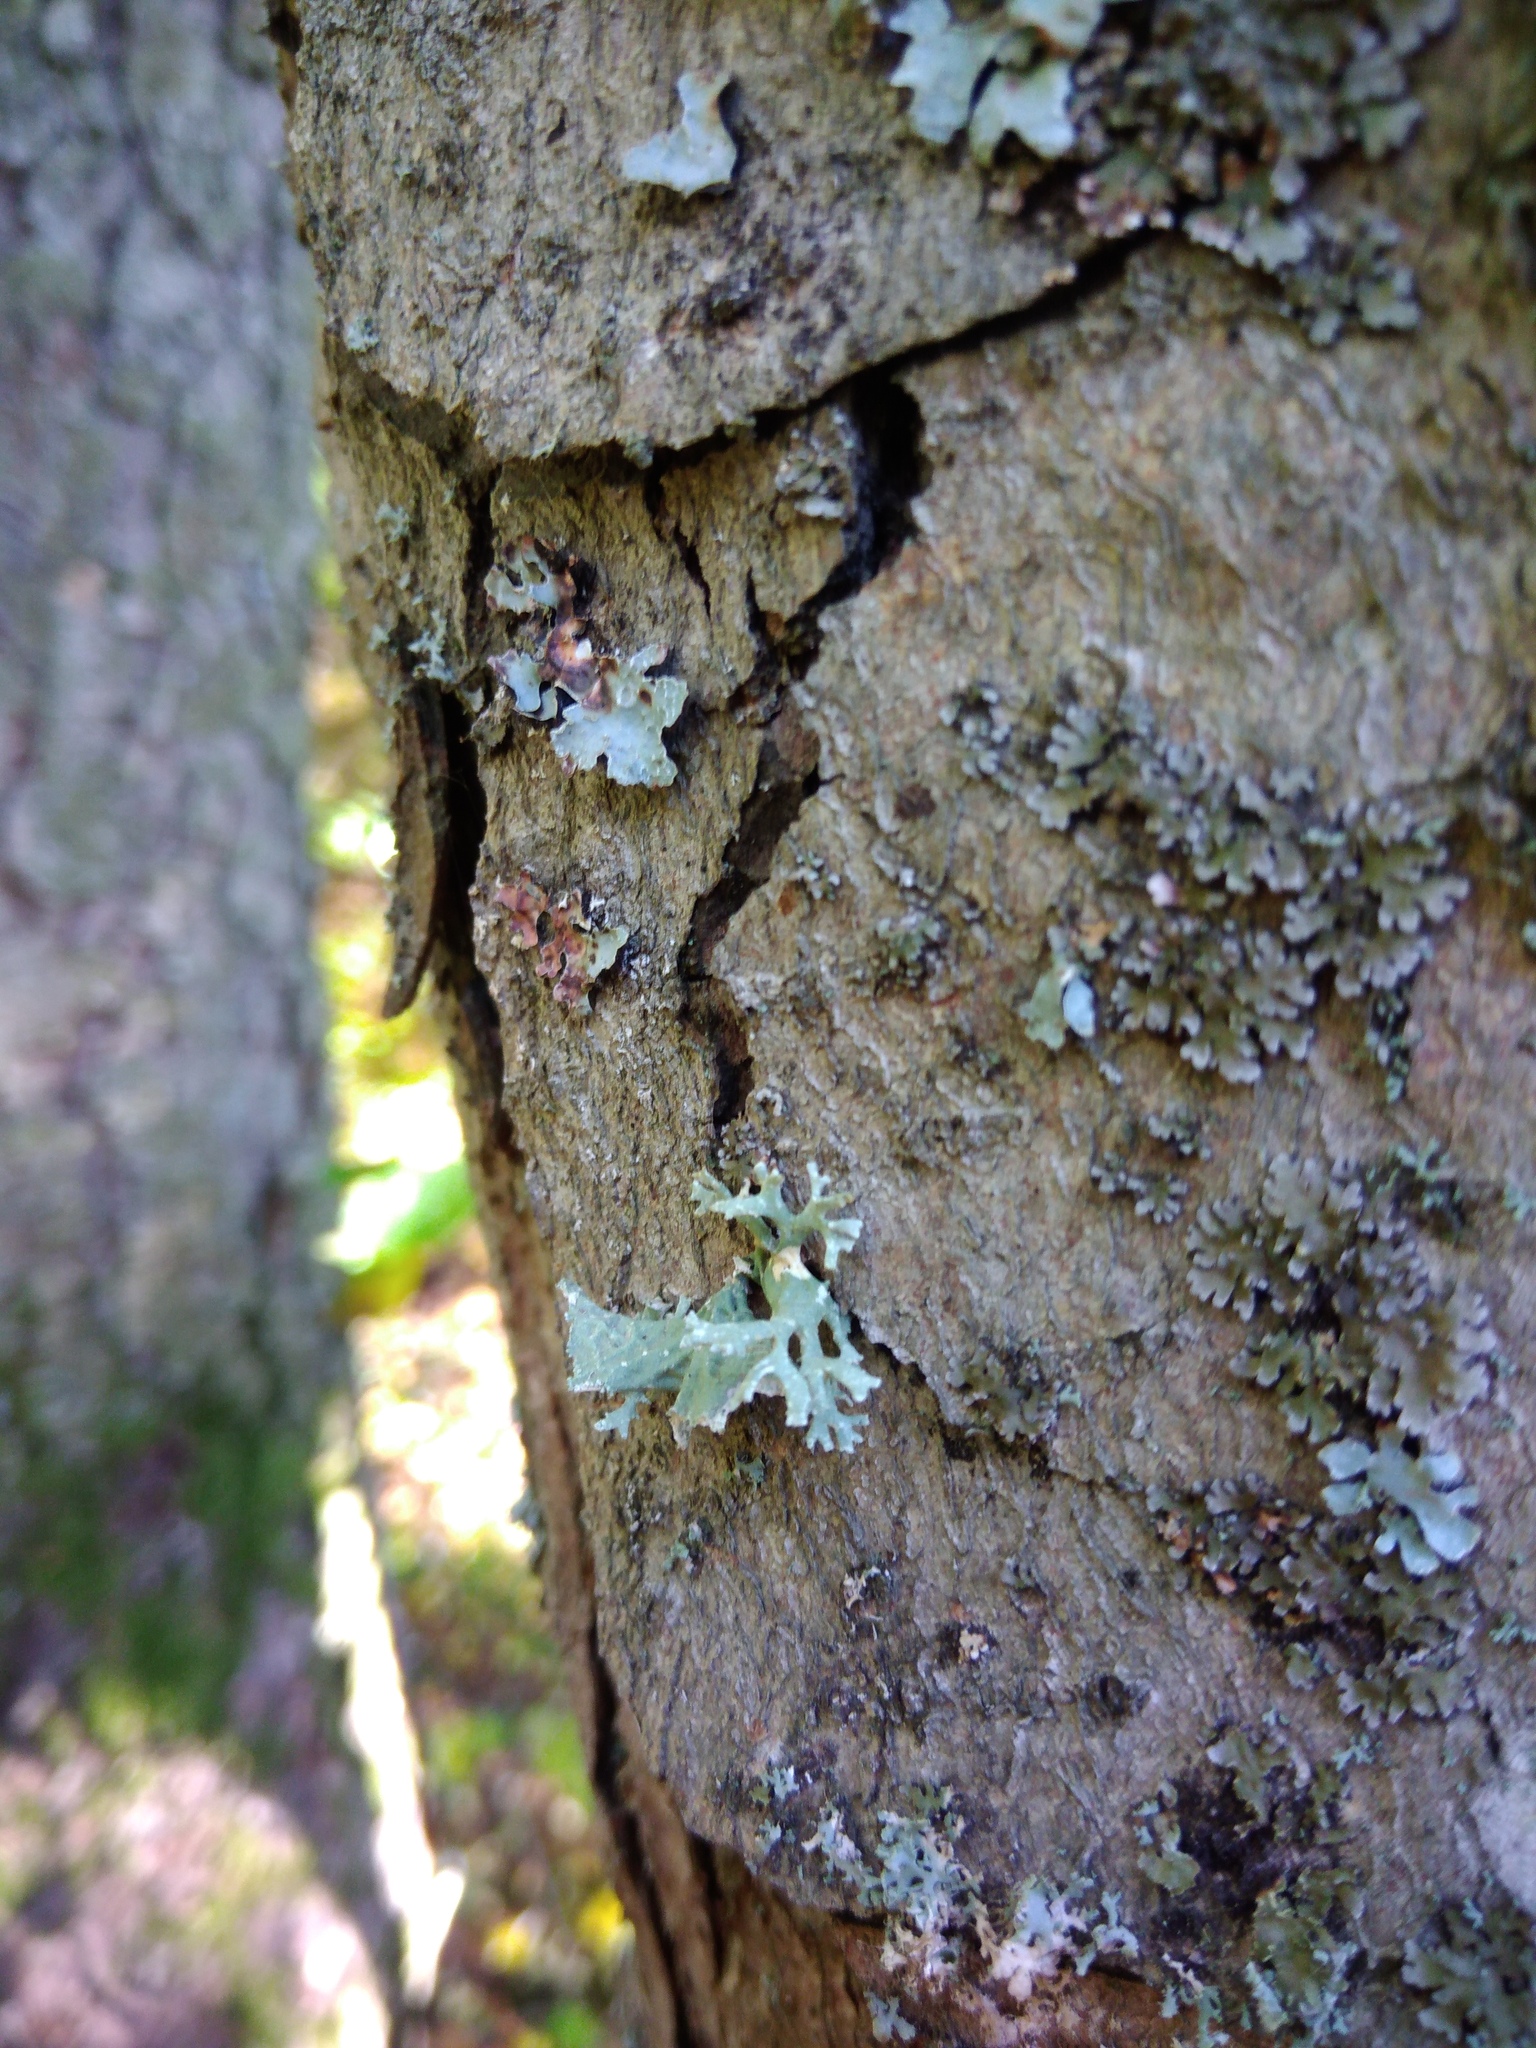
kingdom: Fungi
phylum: Ascomycota
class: Lecanoromycetes
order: Lecanorales
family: Parmeliaceae
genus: Evernia
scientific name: Evernia prunastri
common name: Oak moss
